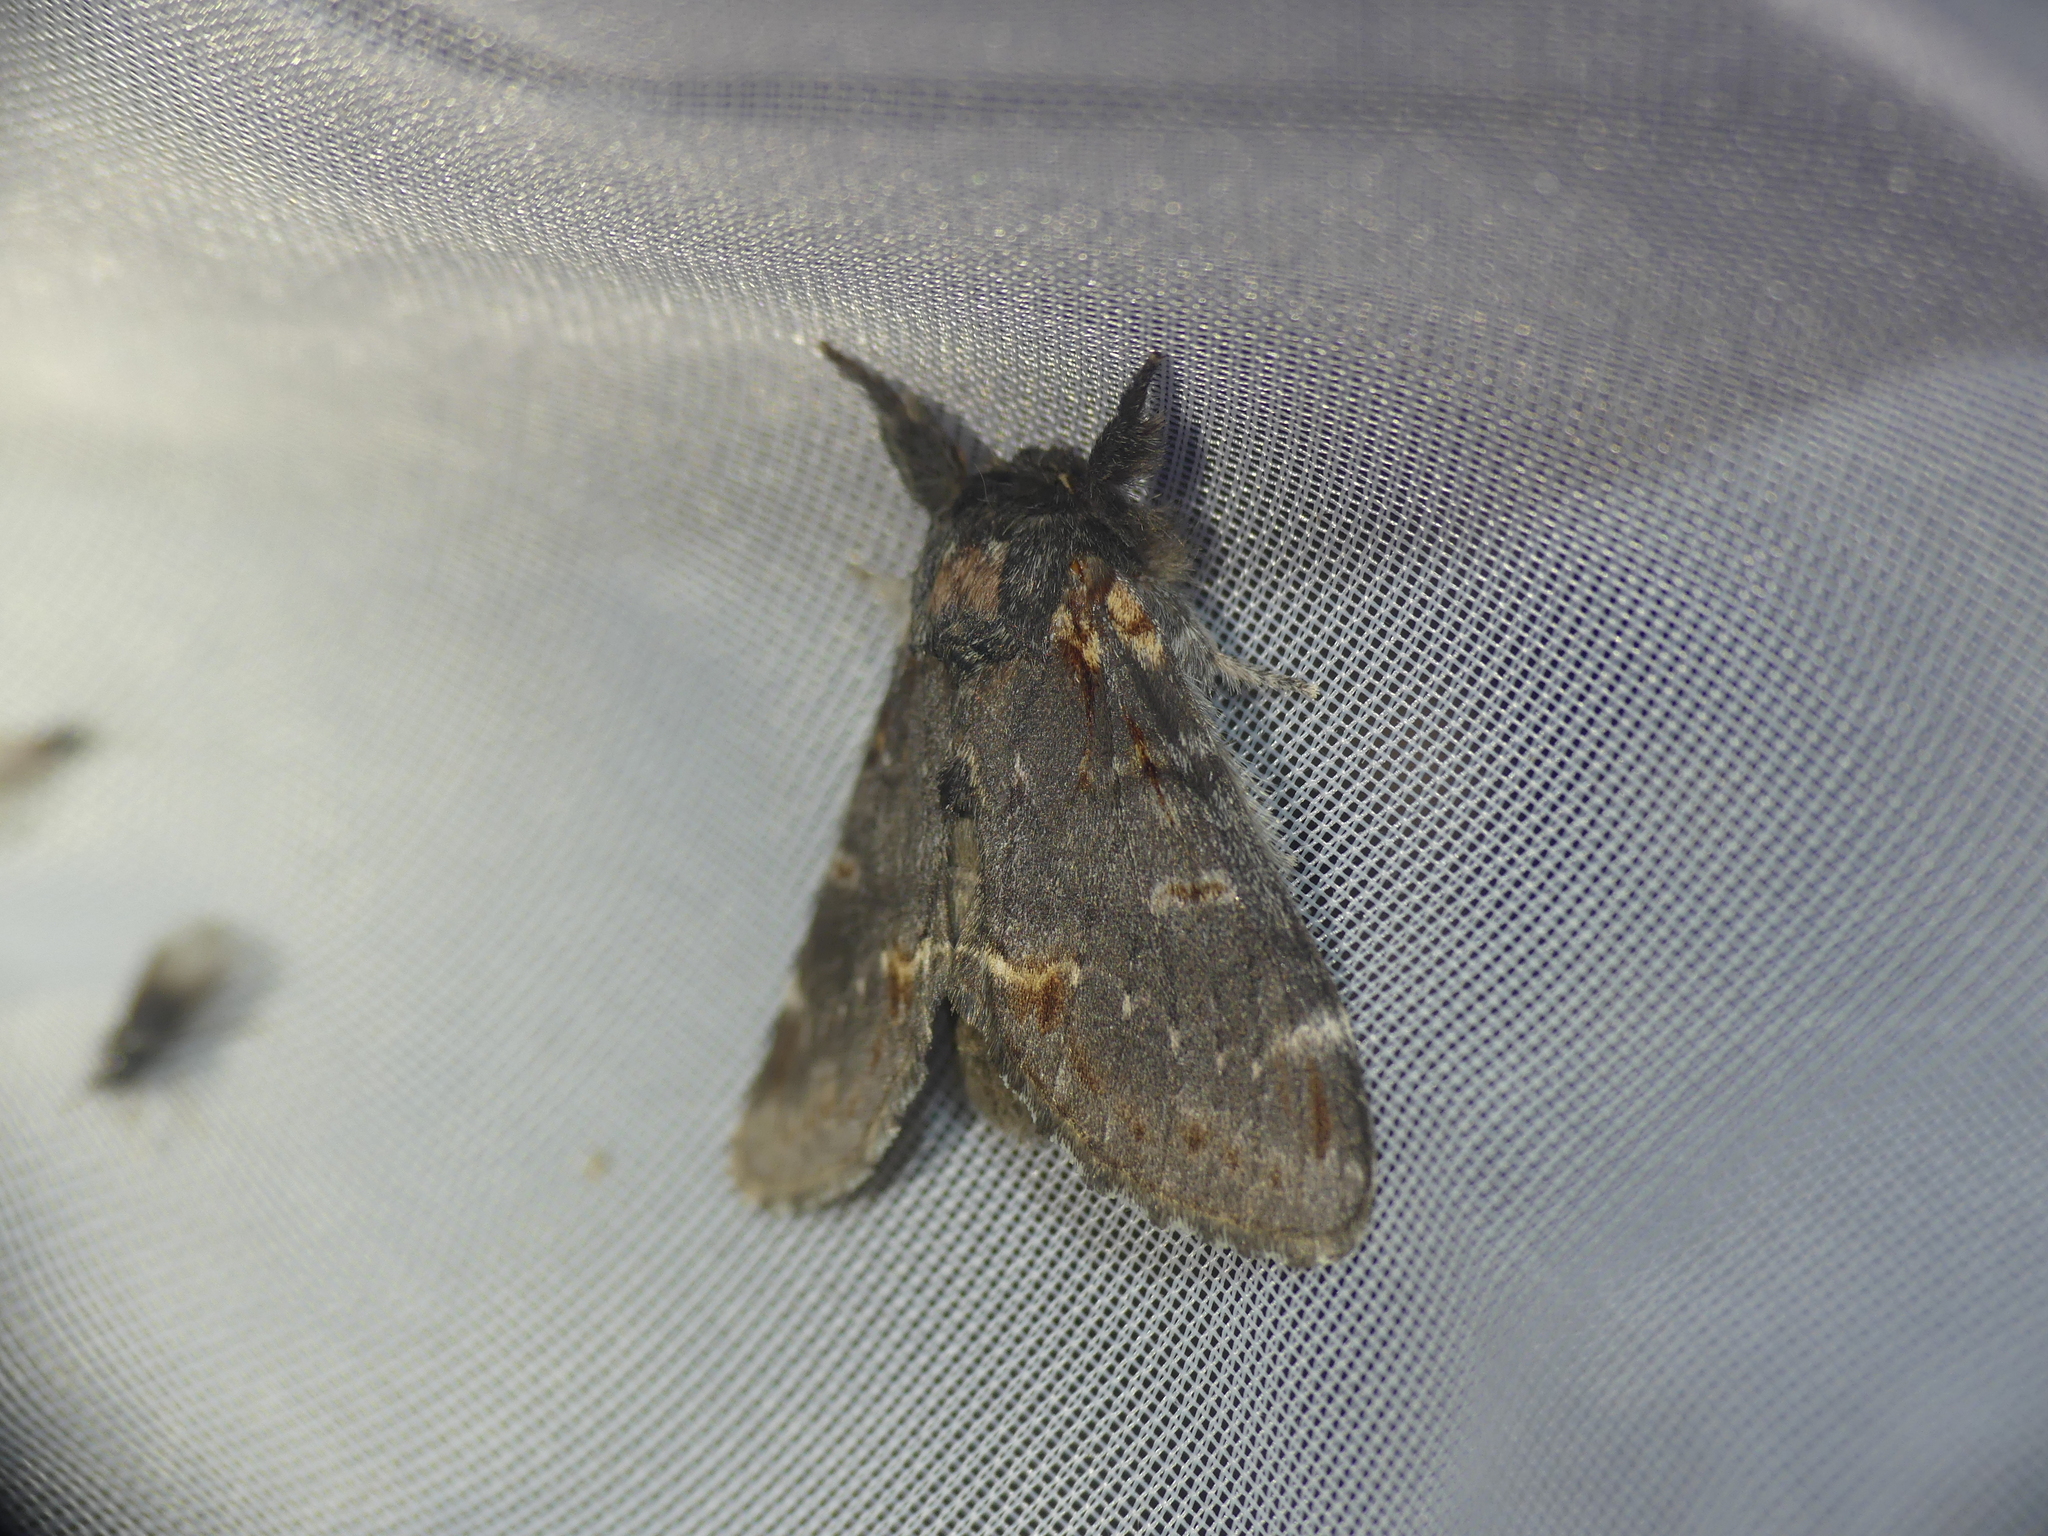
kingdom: Animalia
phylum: Arthropoda
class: Insecta
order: Lepidoptera
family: Notodontidae
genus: Notodonta
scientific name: Notodonta dromedarius
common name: Iron prominent
